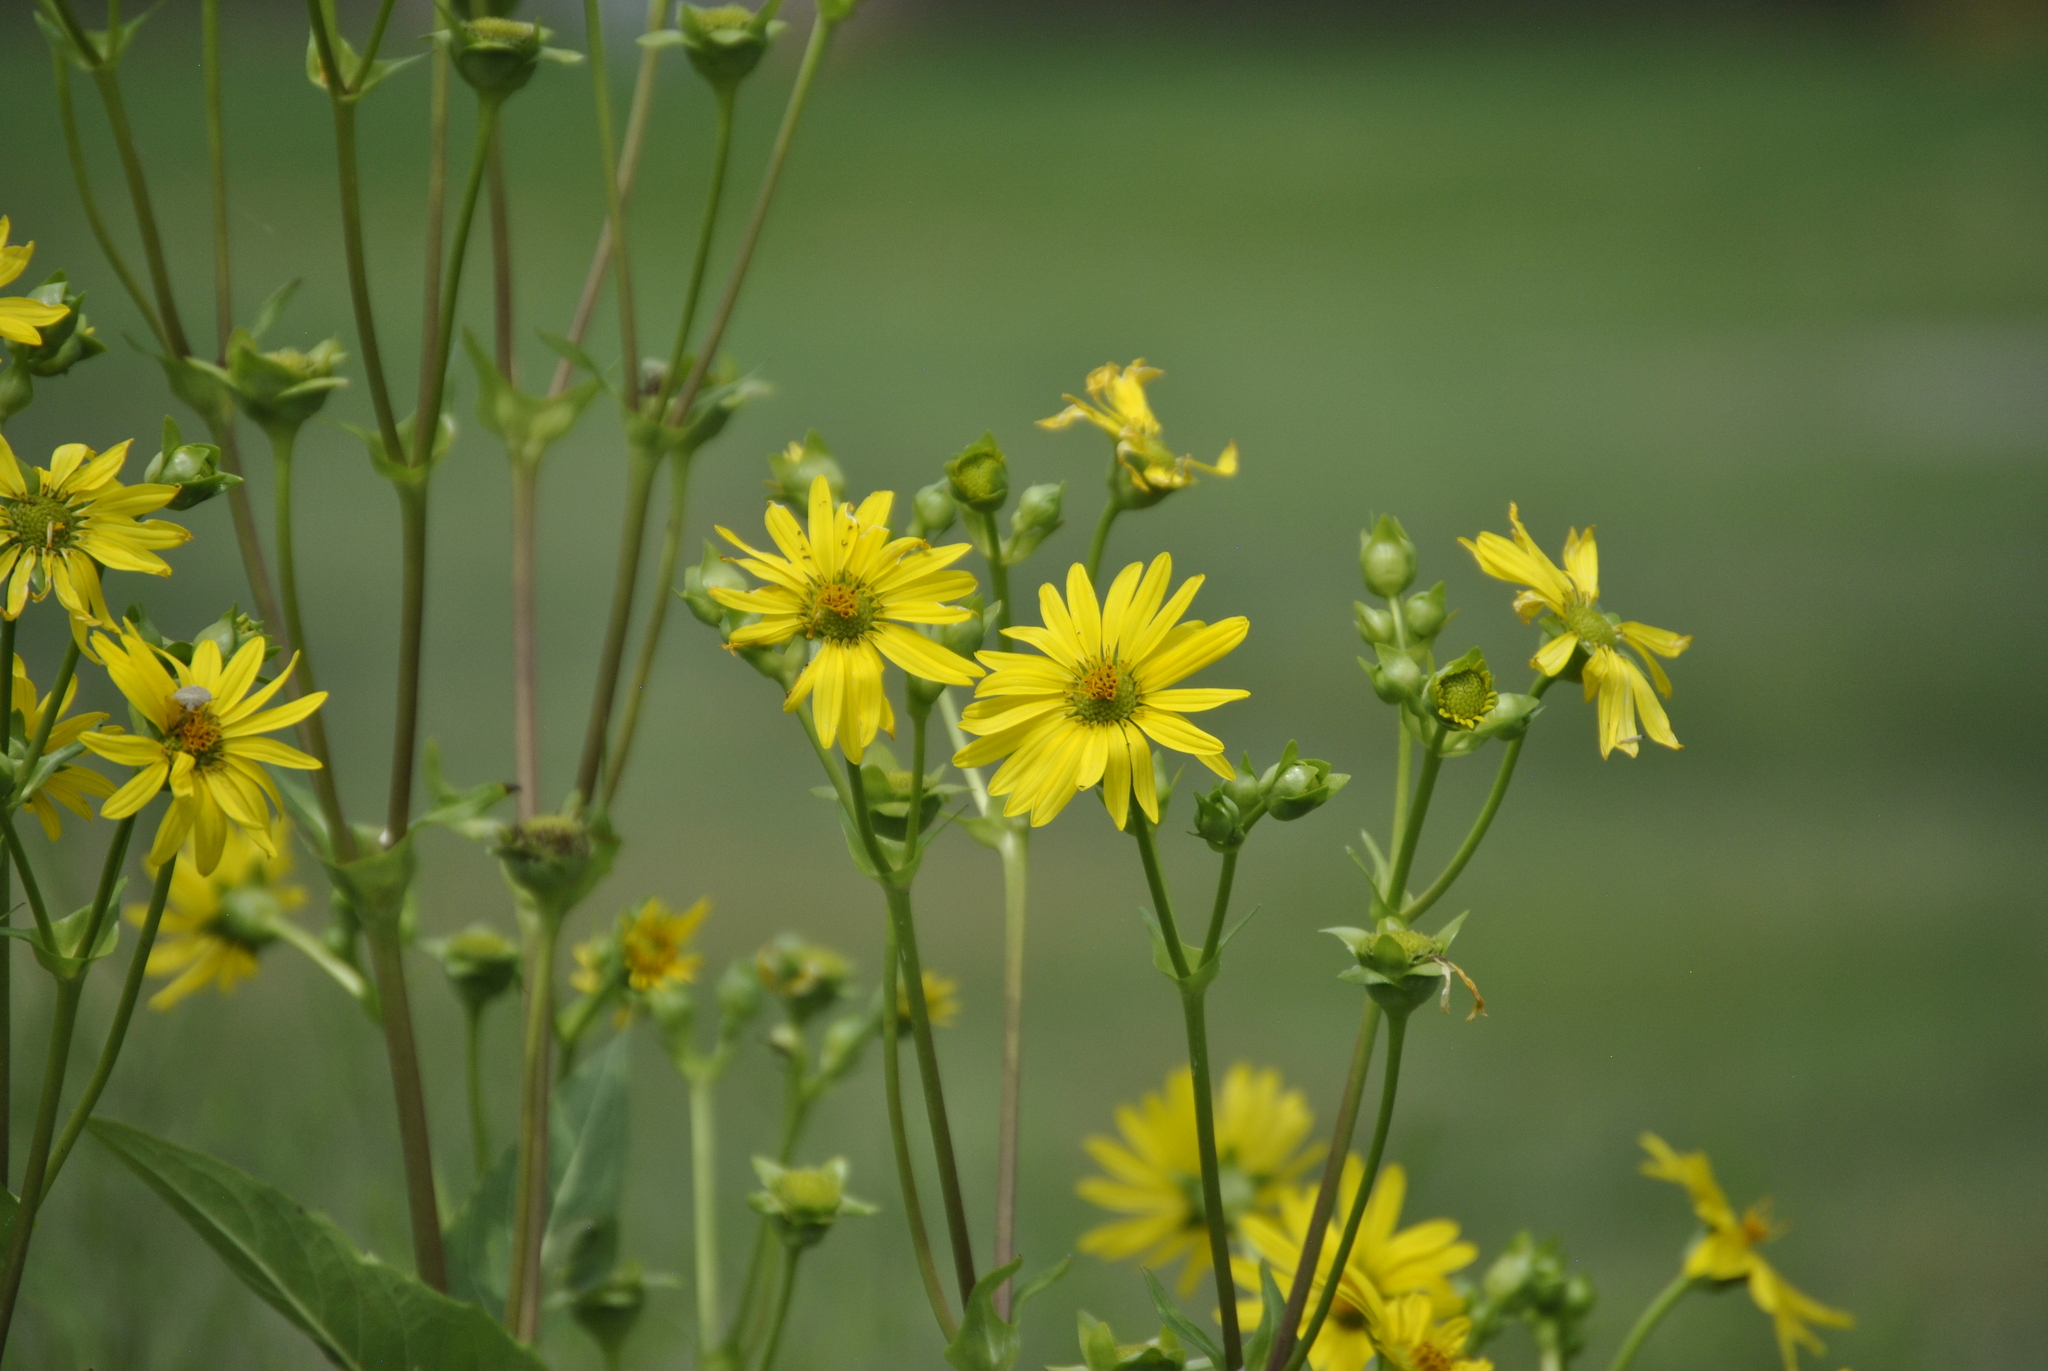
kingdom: Plantae
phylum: Tracheophyta
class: Magnoliopsida
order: Asterales
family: Asteraceae
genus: Silphium
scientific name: Silphium perfoliatum
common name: Cup-plant
